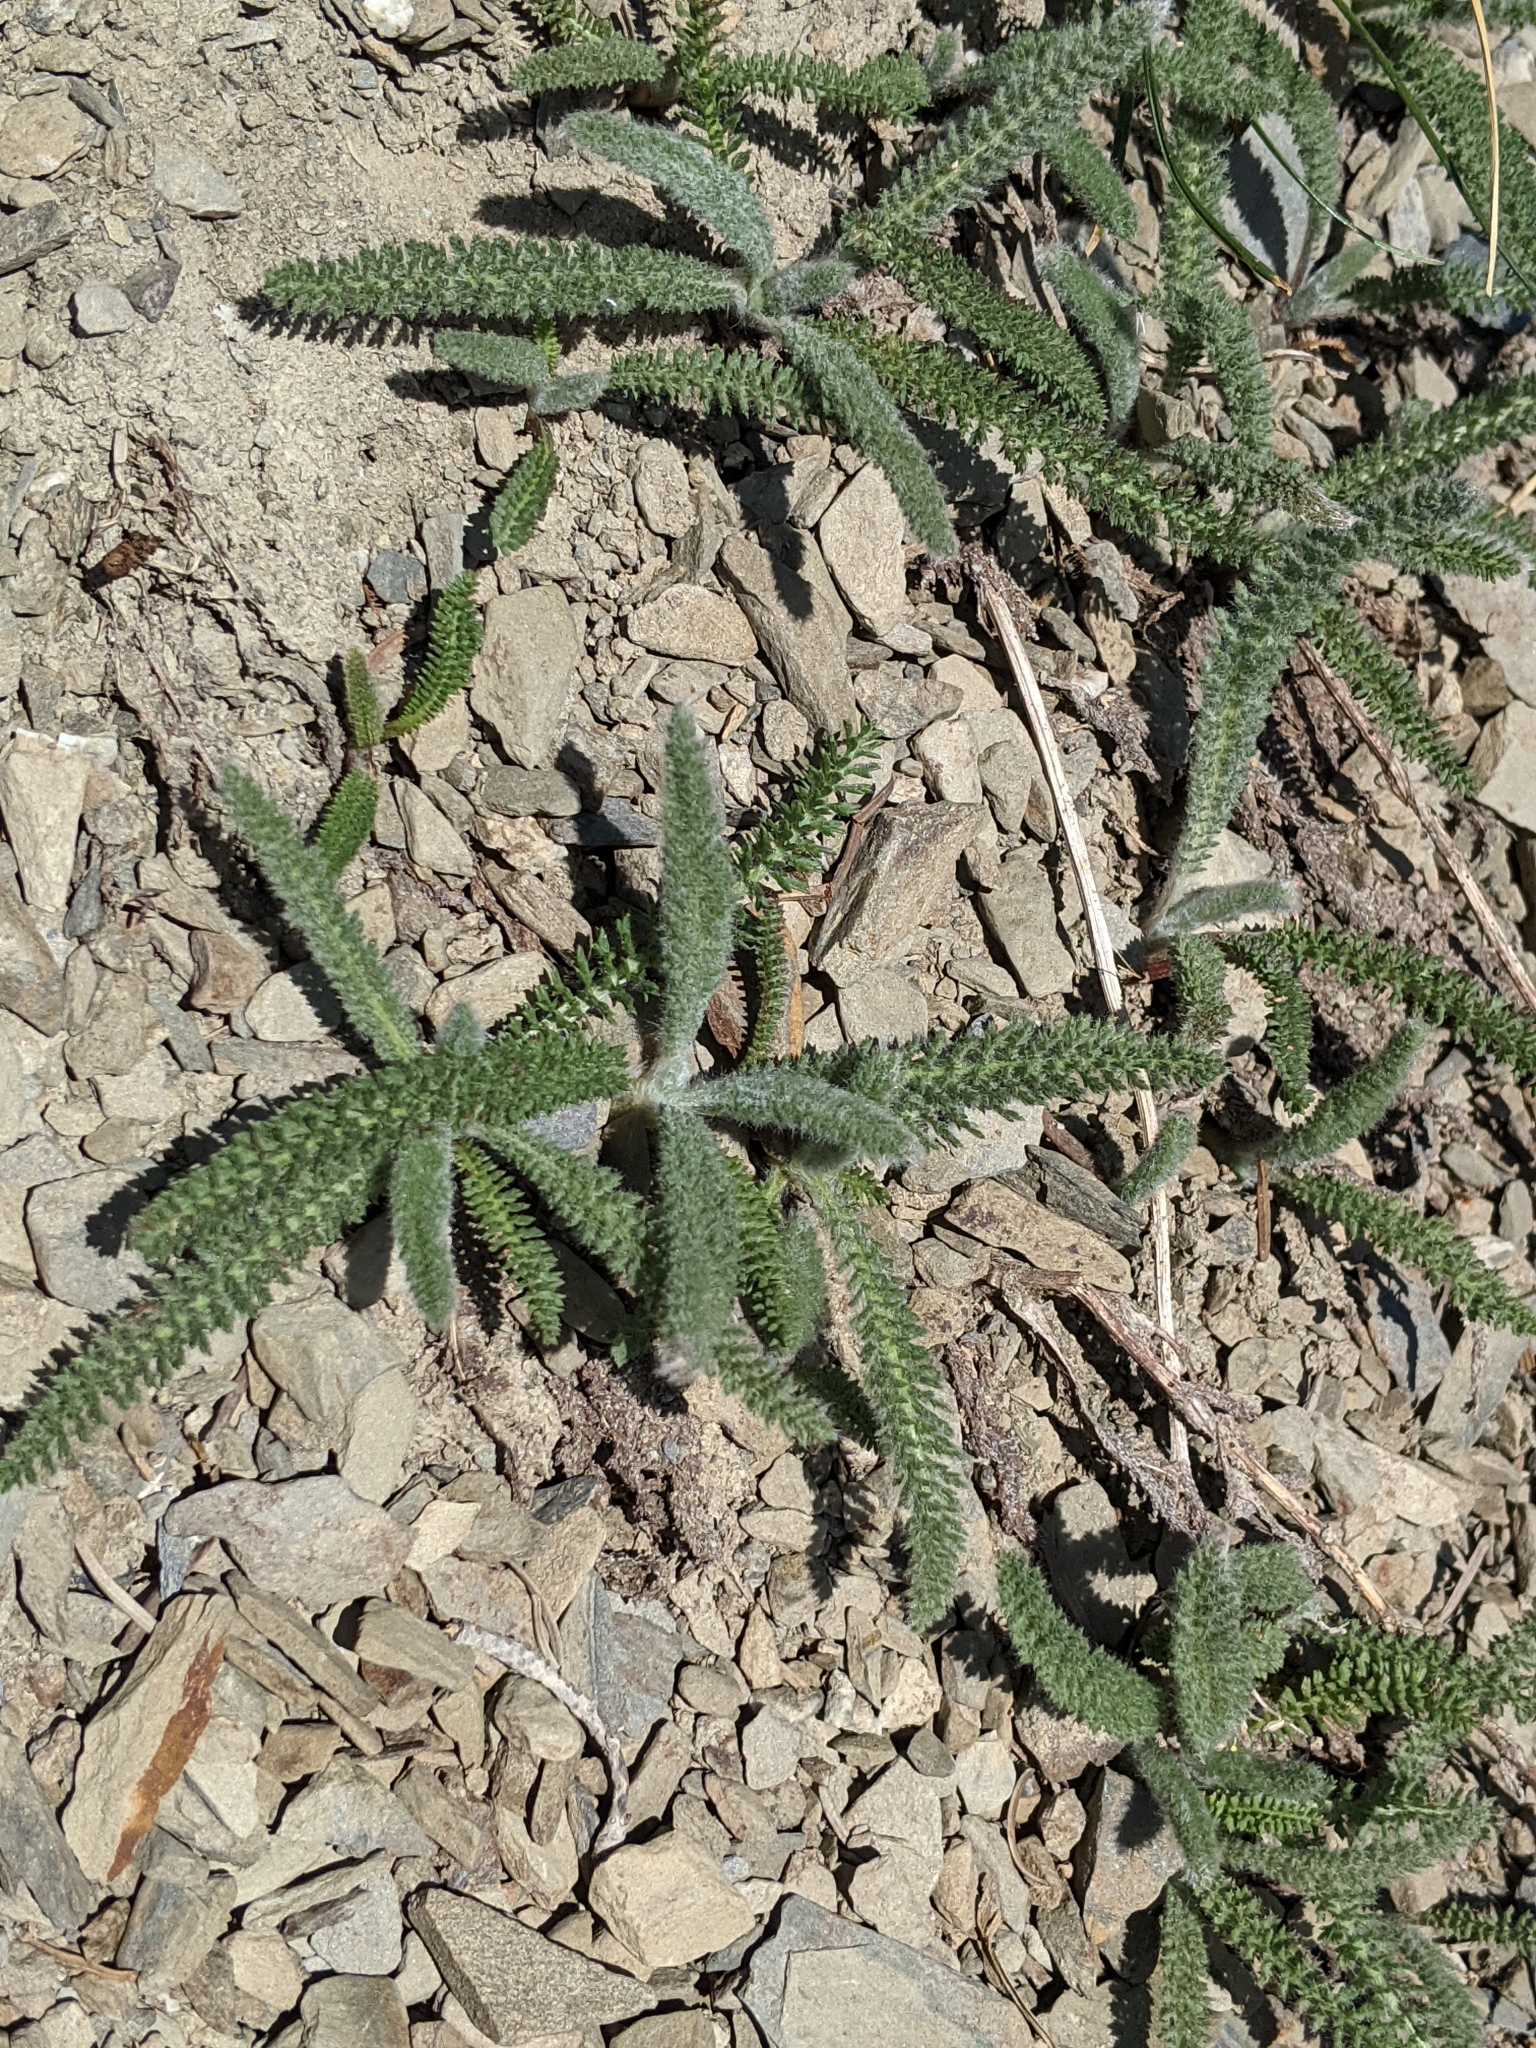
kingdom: Plantae
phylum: Tracheophyta
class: Magnoliopsida
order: Asterales
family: Asteraceae
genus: Achillea
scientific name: Achillea millefolium
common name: Yarrow
